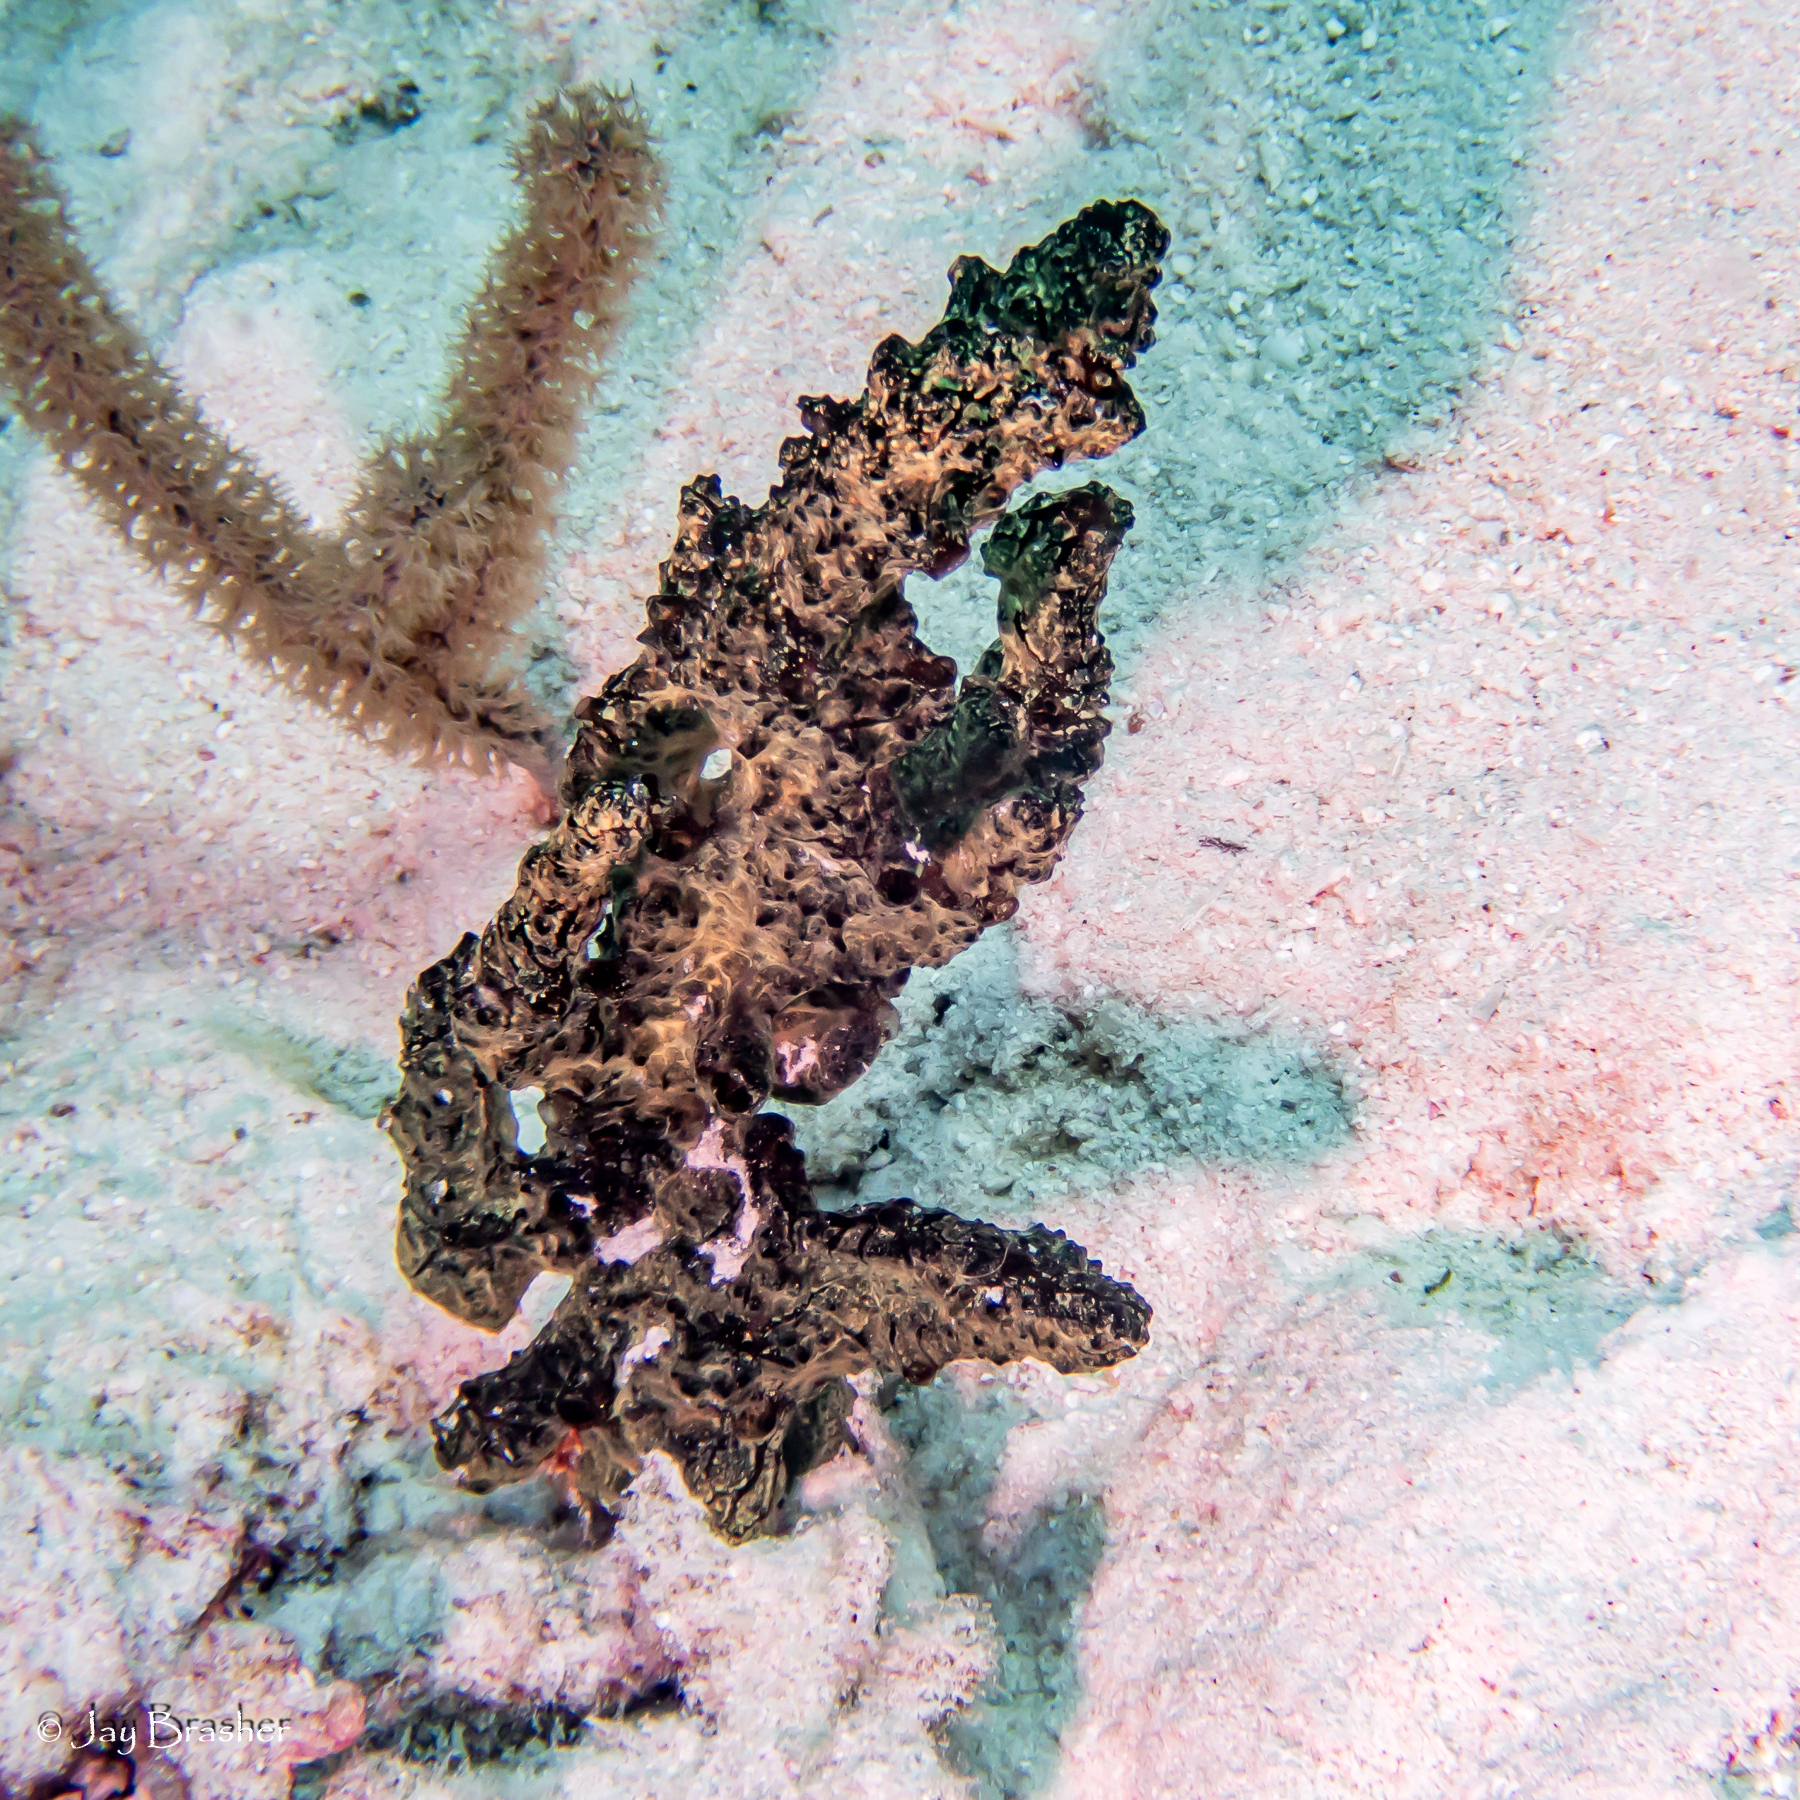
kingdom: Animalia
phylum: Porifera
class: Demospongiae
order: Poecilosclerida
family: Iotrochotidae
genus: Iotrochota
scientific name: Iotrochota birotulata
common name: Purple bleeding sponge
